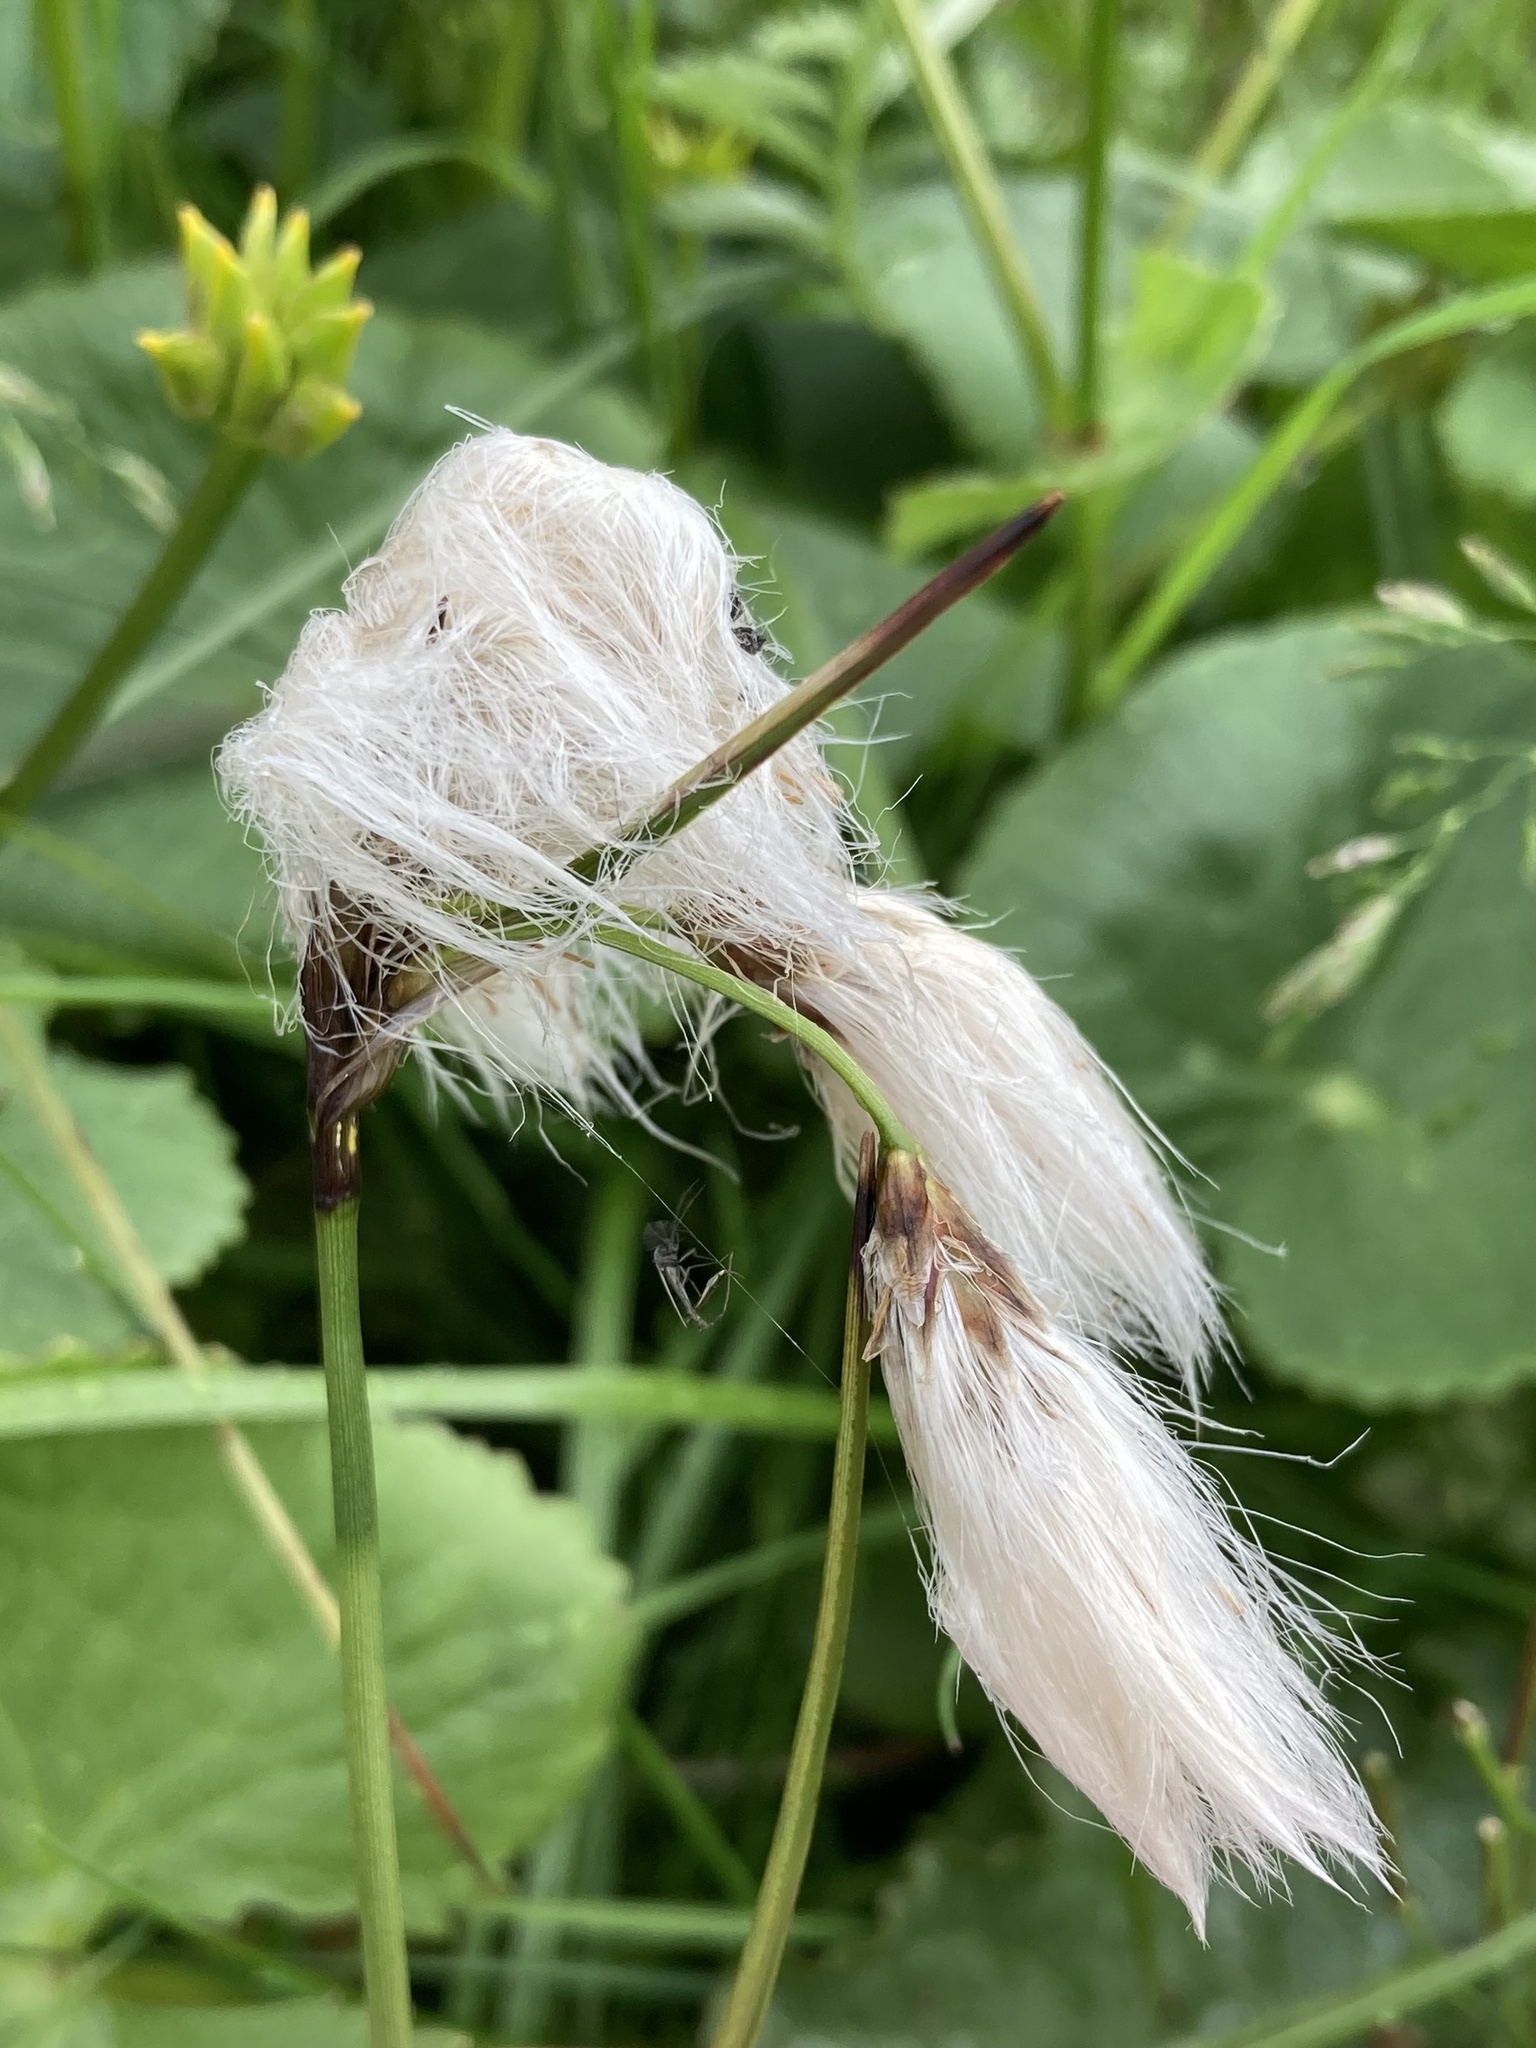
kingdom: Plantae
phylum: Tracheophyta
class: Liliopsida
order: Poales
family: Cyperaceae
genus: Eriophorum
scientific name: Eriophorum angustifolium
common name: Common cottongrass
